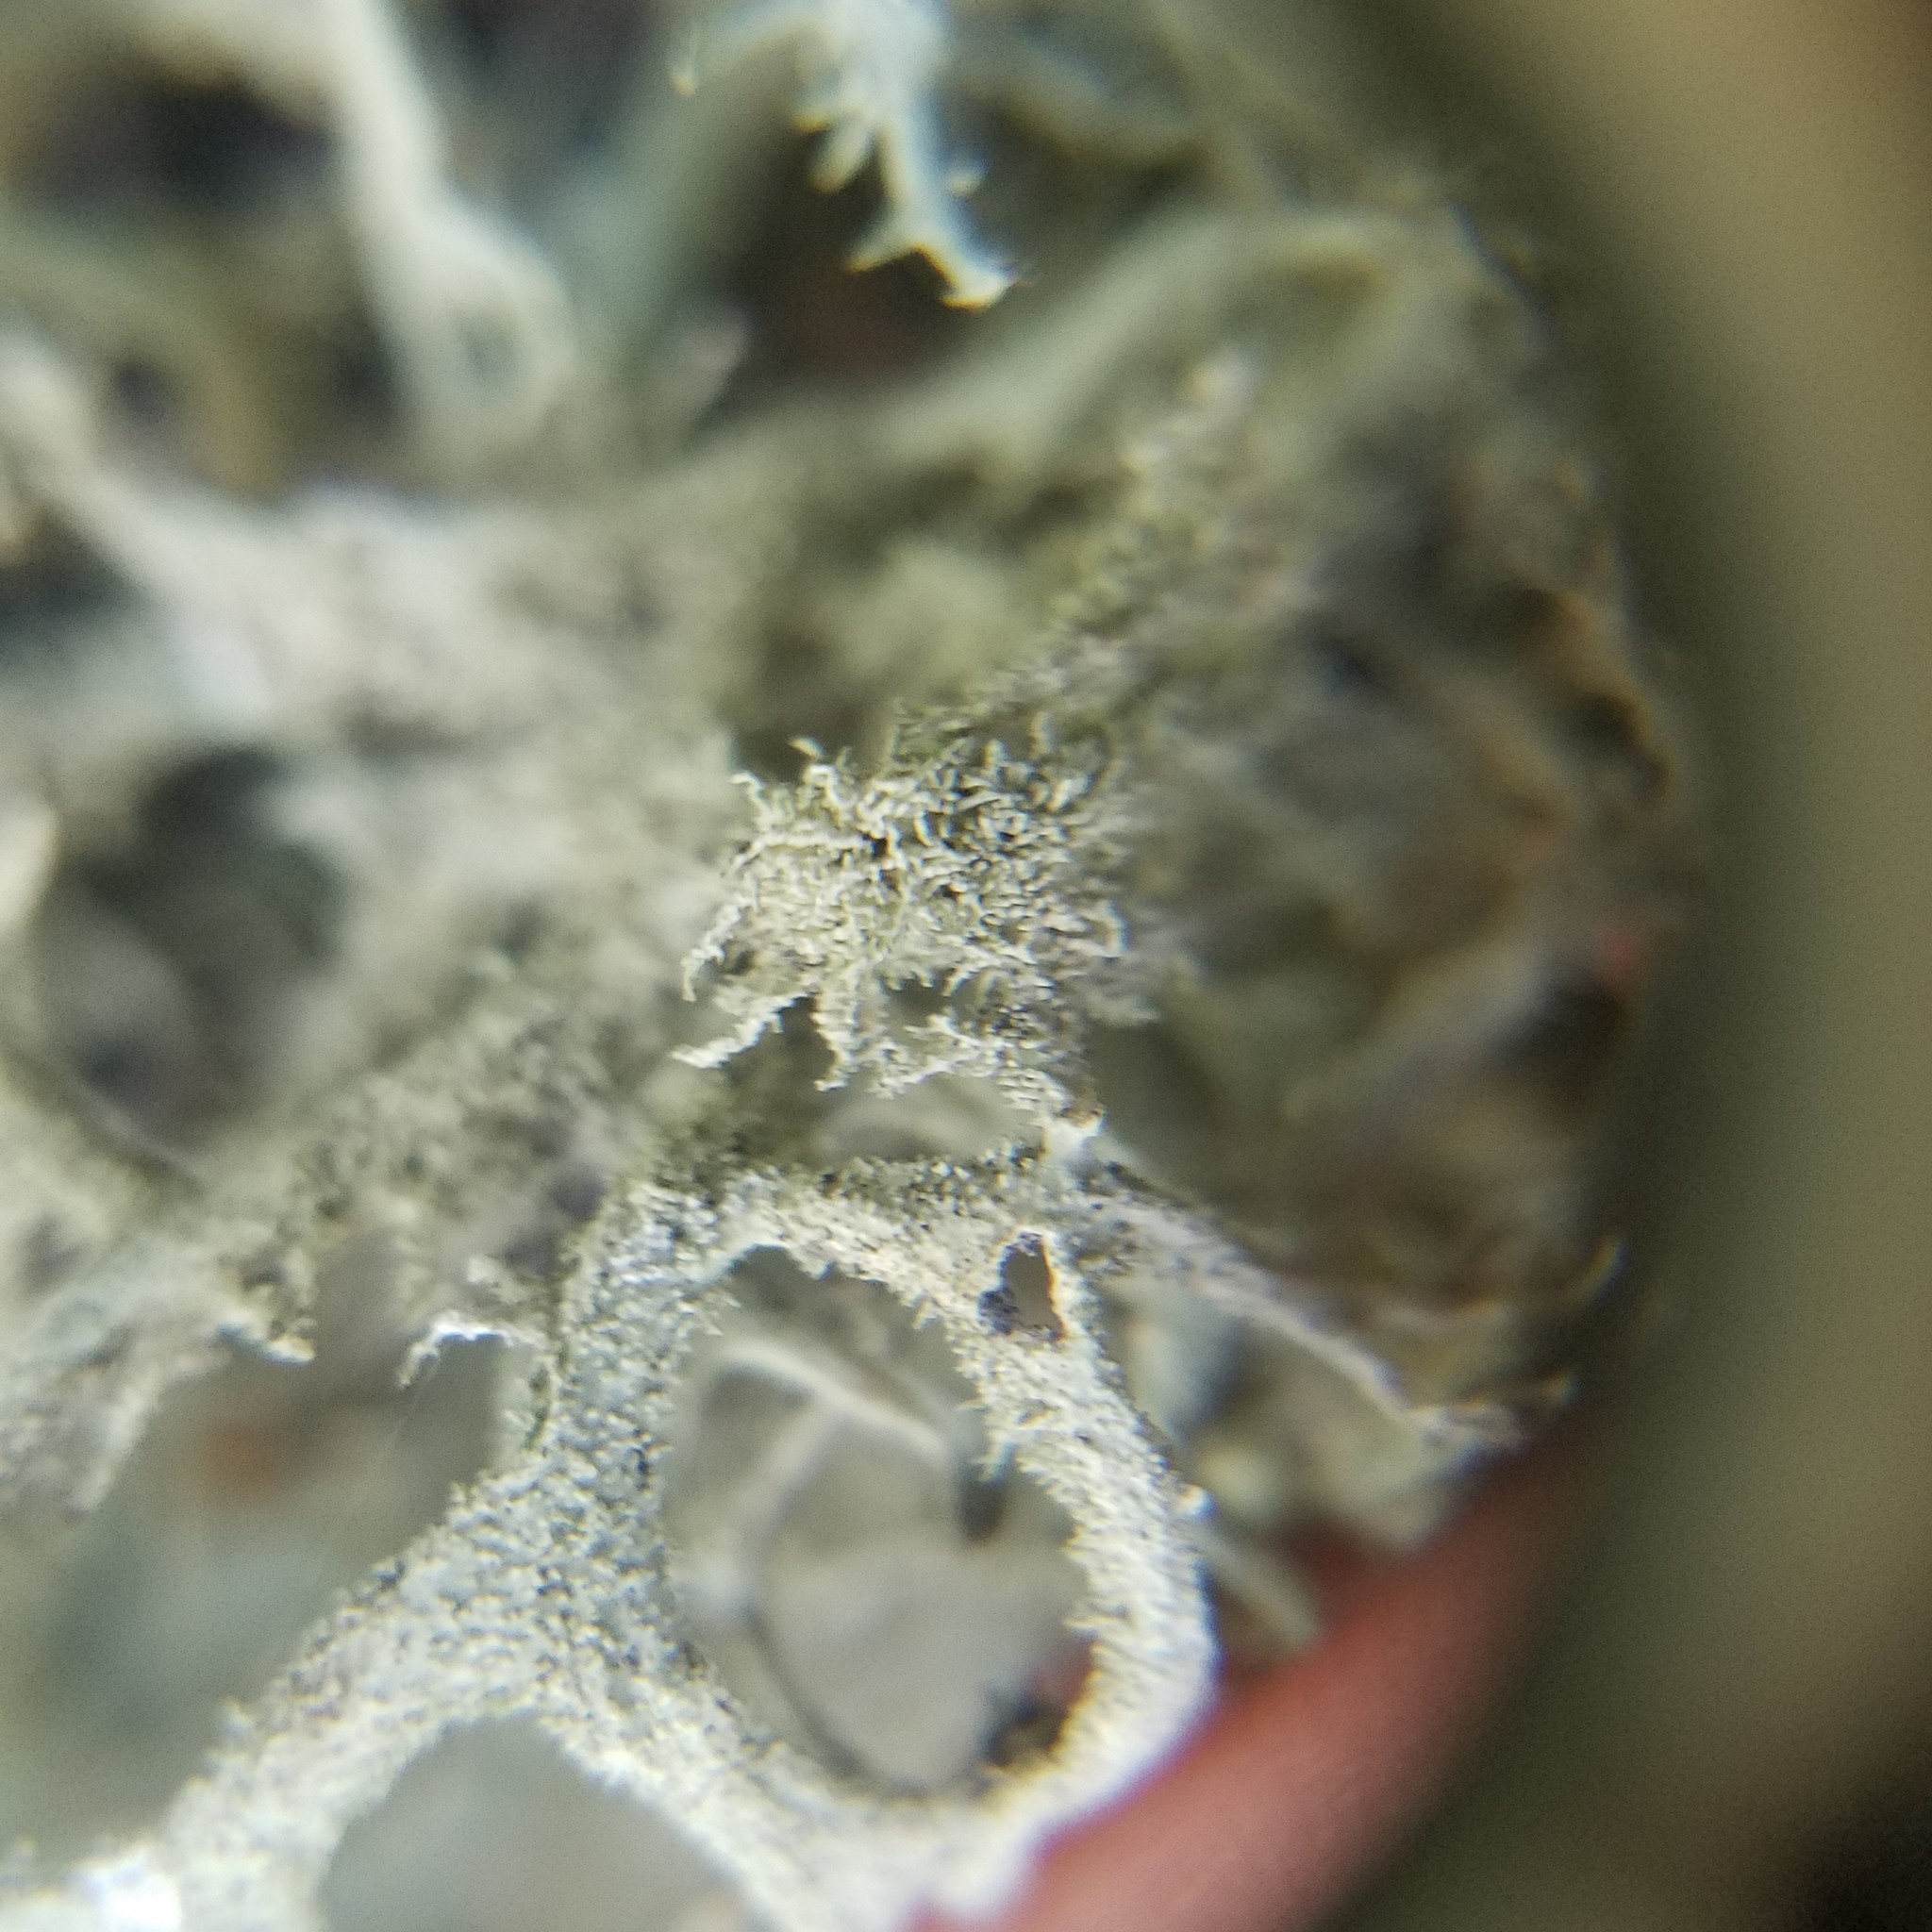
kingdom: Fungi
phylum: Ascomycota
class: Lecanoromycetes
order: Lecanorales
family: Parmeliaceae
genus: Pseudevernia
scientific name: Pseudevernia consocians
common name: Common antler lichen
